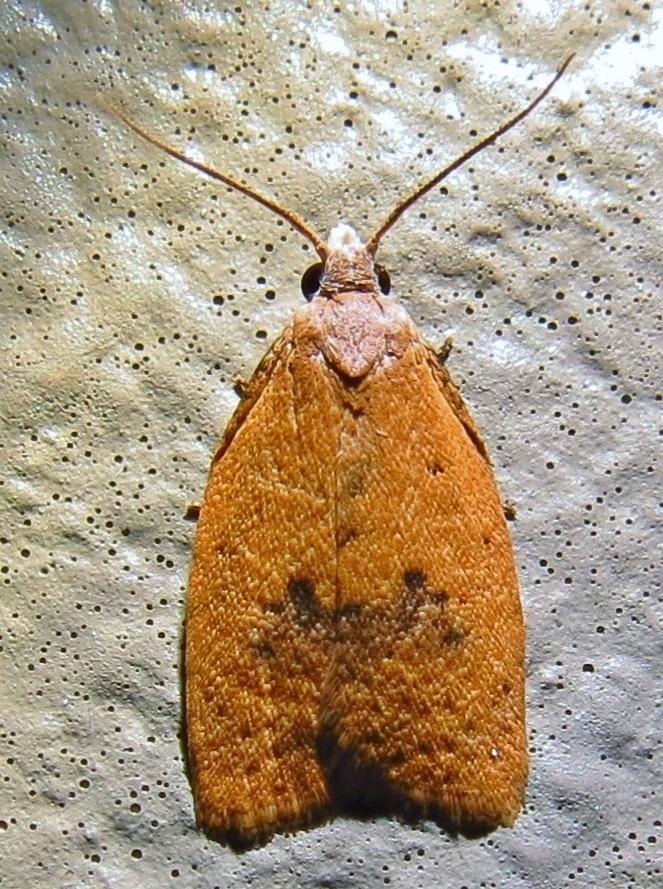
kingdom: Animalia
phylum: Arthropoda
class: Insecta
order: Lepidoptera
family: Tortricidae
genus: Sparganothoides
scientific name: Sparganothoides lentiginosana
